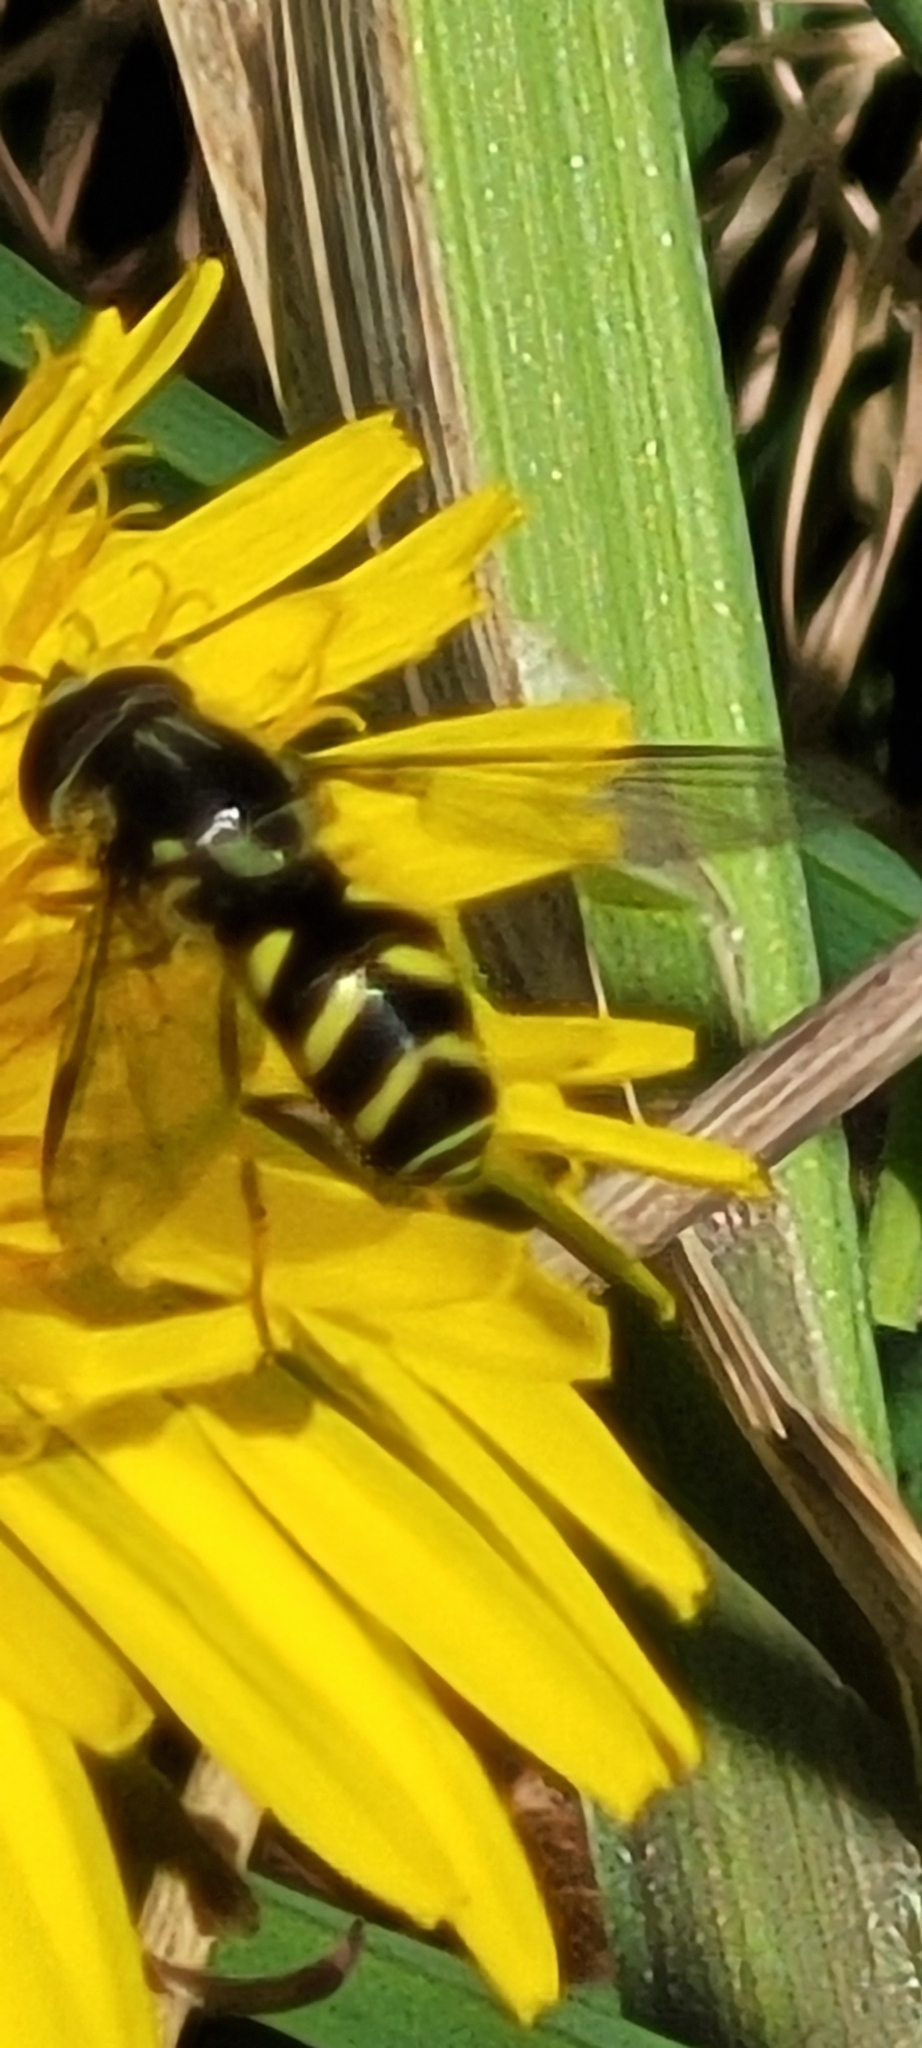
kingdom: Animalia
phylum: Arthropoda
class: Insecta
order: Diptera
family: Syrphidae
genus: Dasysyrphus
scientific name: Dasysyrphus albostriatus
